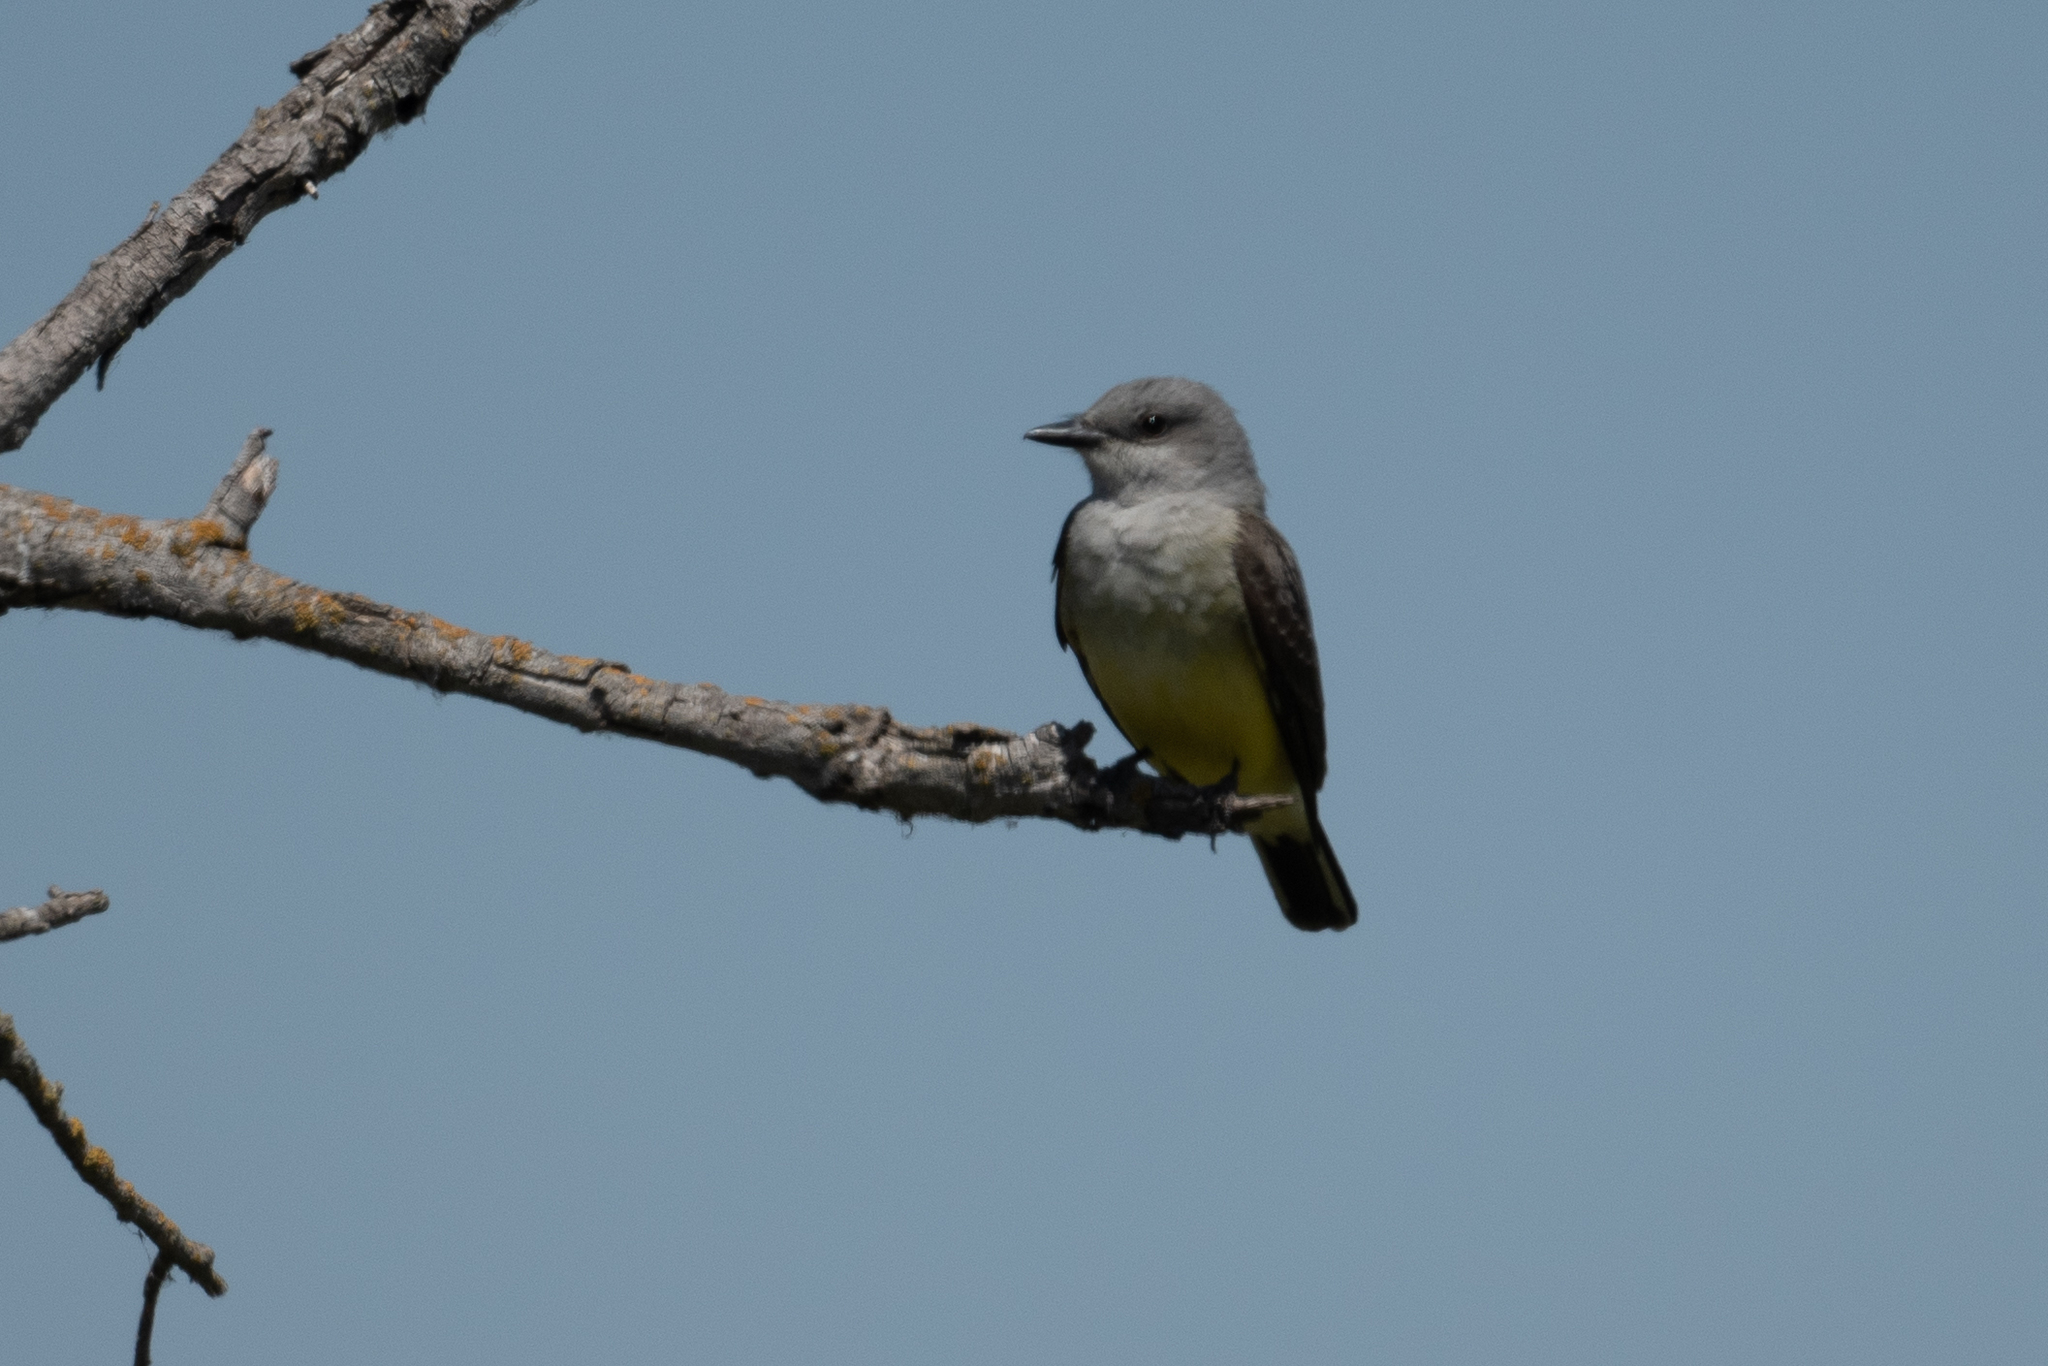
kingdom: Animalia
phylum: Chordata
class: Aves
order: Passeriformes
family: Tyrannidae
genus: Tyrannus
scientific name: Tyrannus verticalis
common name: Western kingbird
